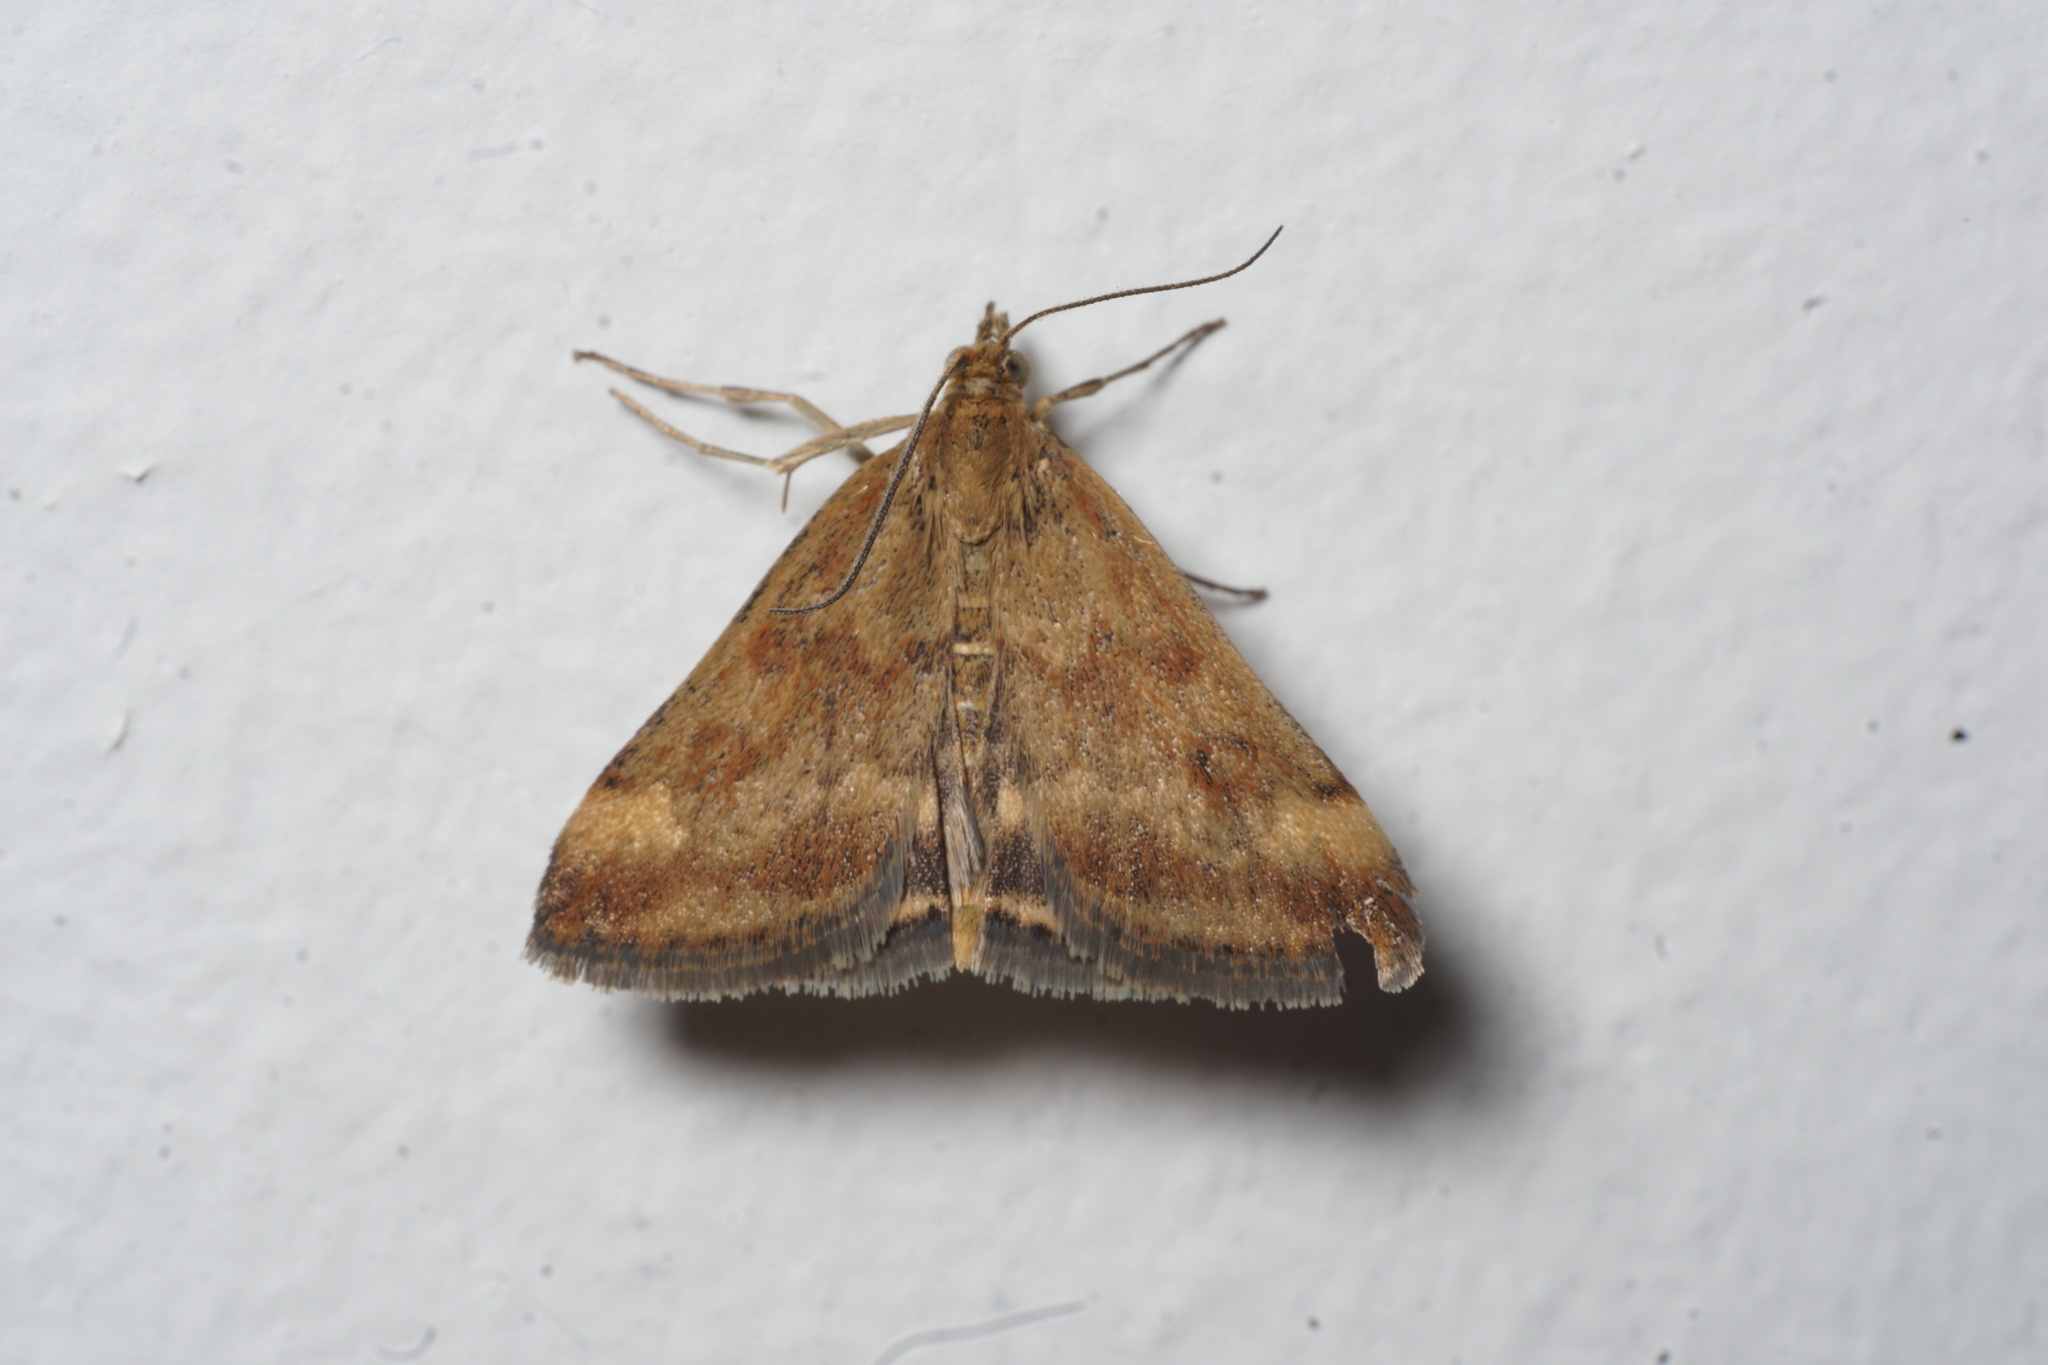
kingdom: Animalia
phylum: Arthropoda
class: Insecta
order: Lepidoptera
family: Crambidae
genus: Pyrausta
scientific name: Pyrausta despicata
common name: Straw-barred pearl
